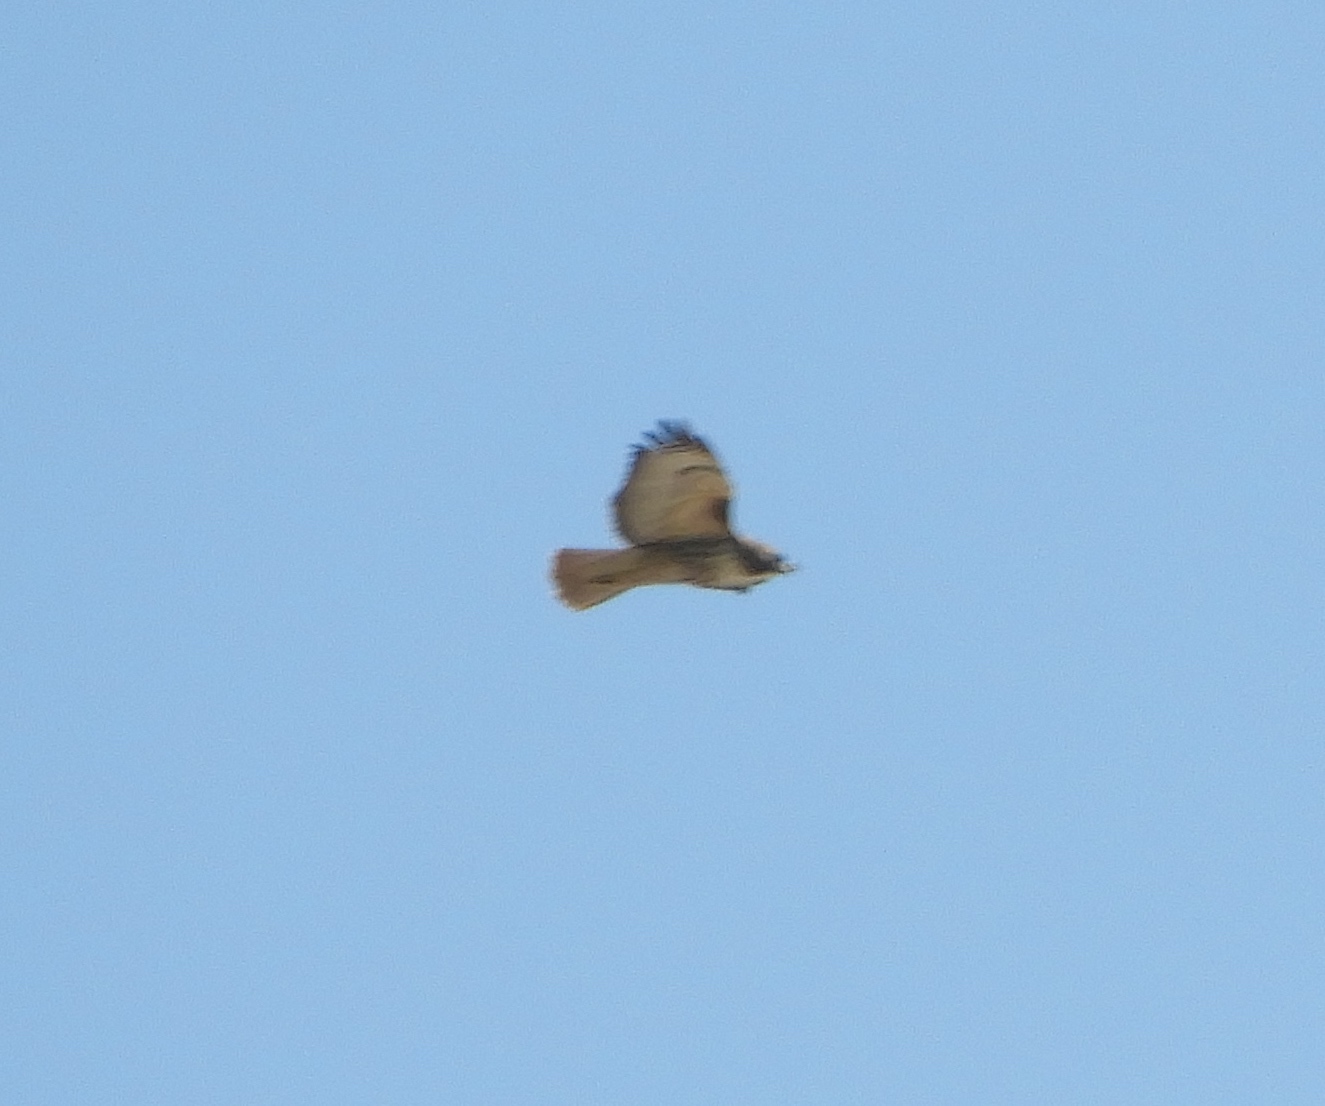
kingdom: Animalia
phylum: Chordata
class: Aves
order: Accipitriformes
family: Accipitridae
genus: Buteo
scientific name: Buteo jamaicensis
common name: Red-tailed hawk
